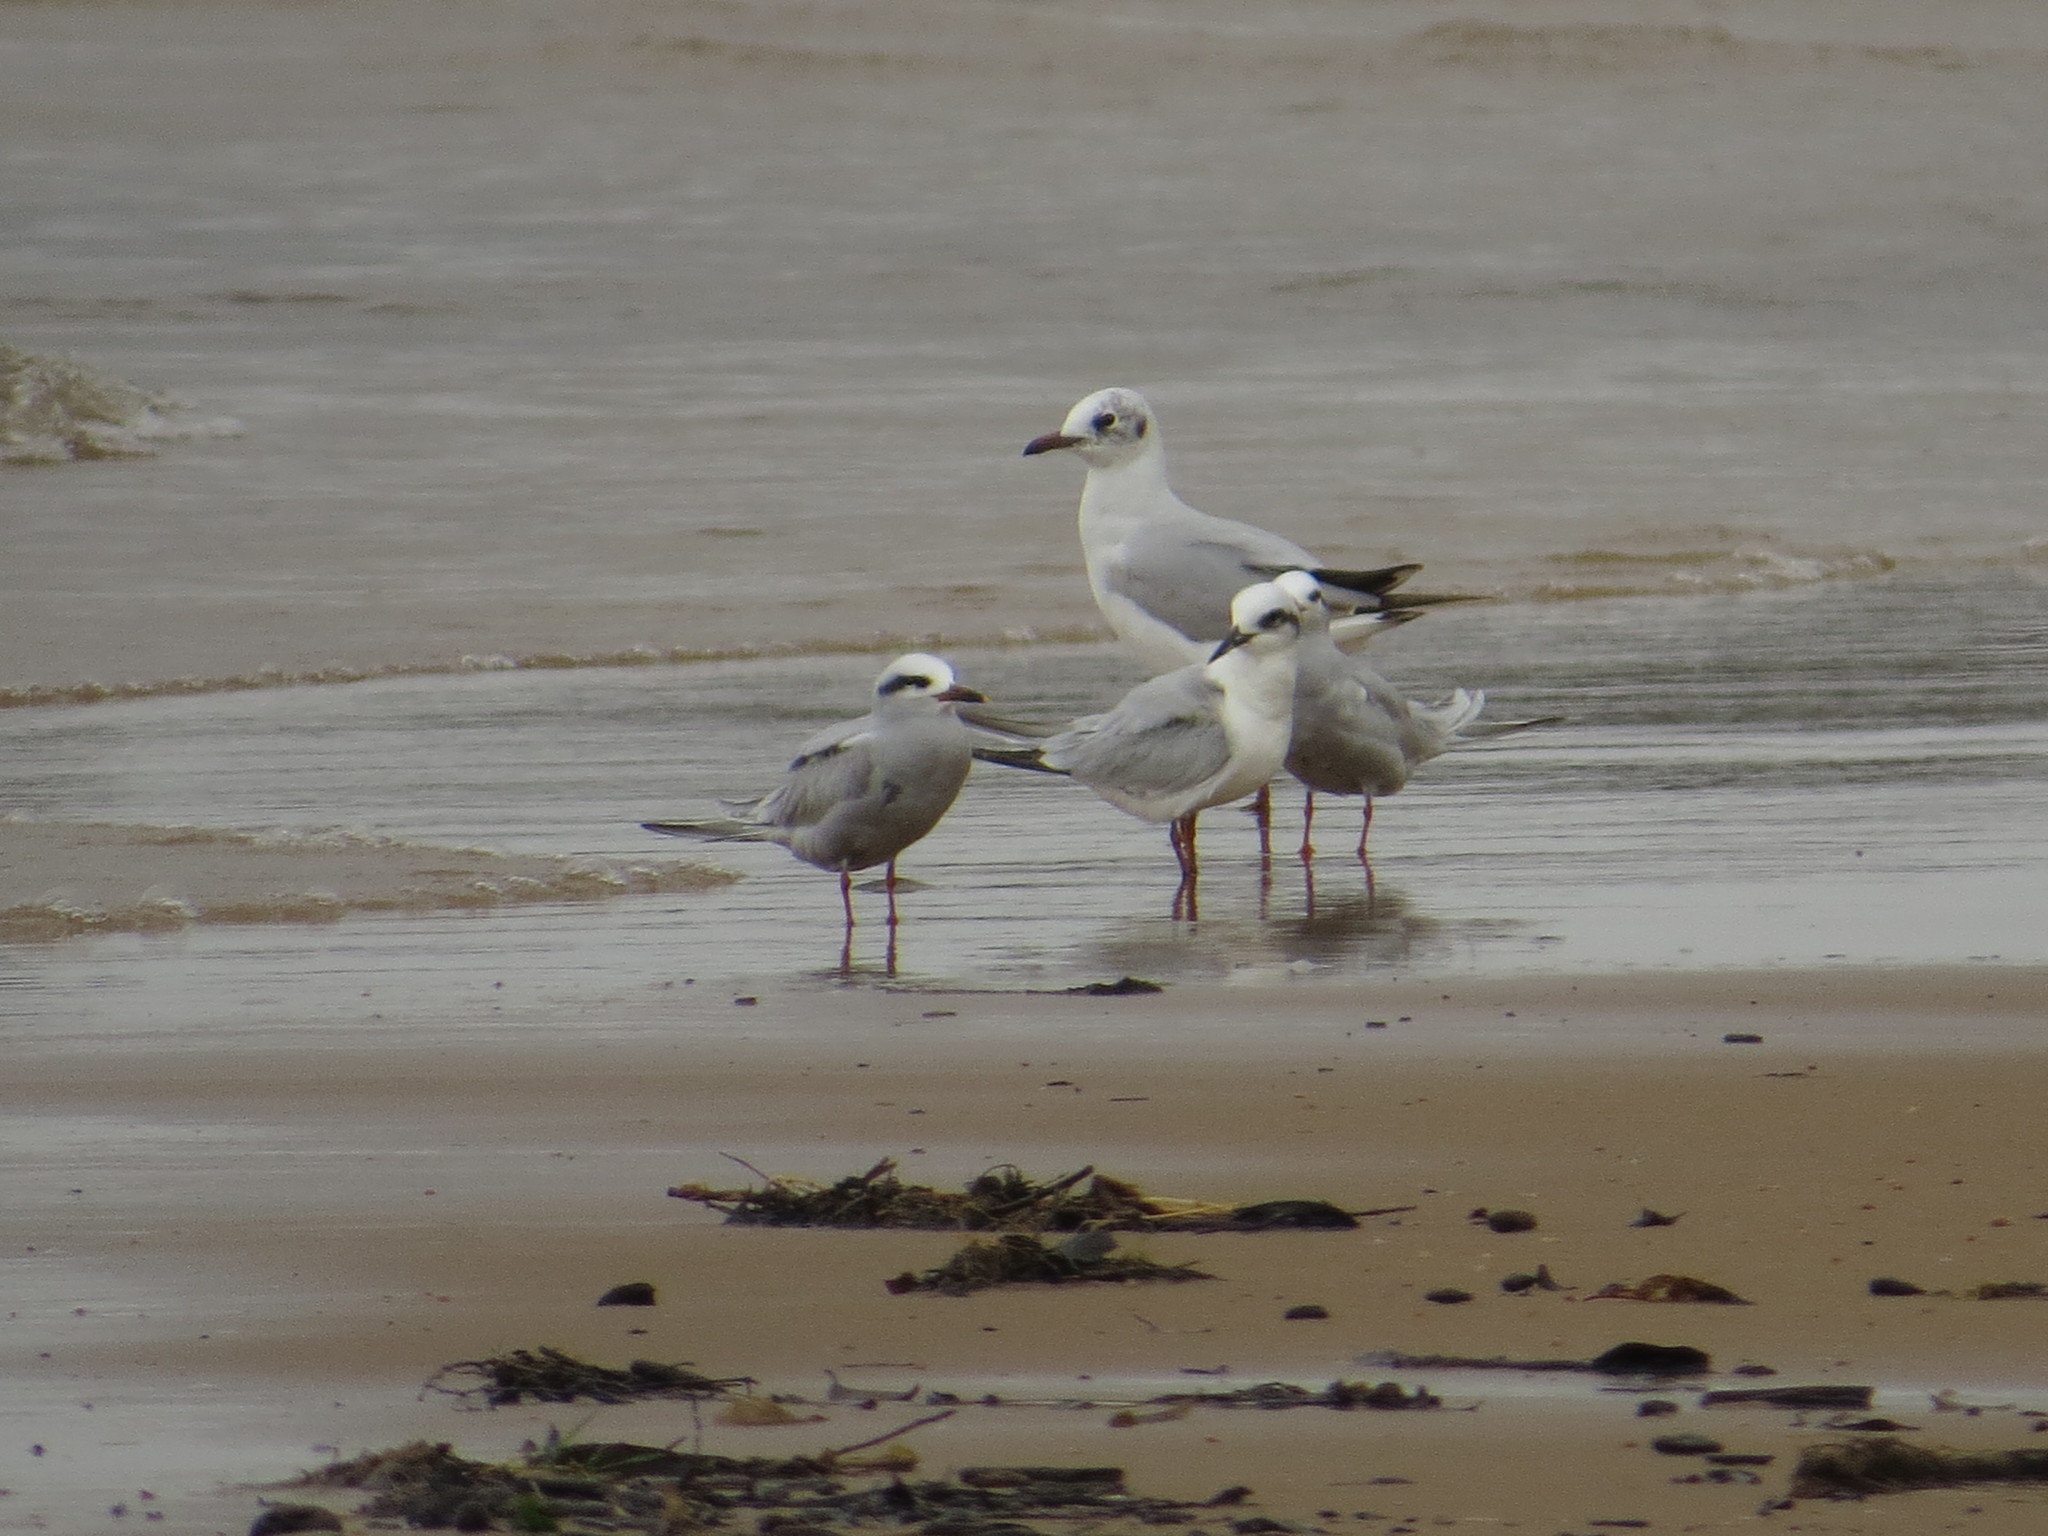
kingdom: Animalia
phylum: Chordata
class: Aves
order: Charadriiformes
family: Laridae
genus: Chroicocephalus
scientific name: Chroicocephalus maculipennis
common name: Brown-hooded gull
